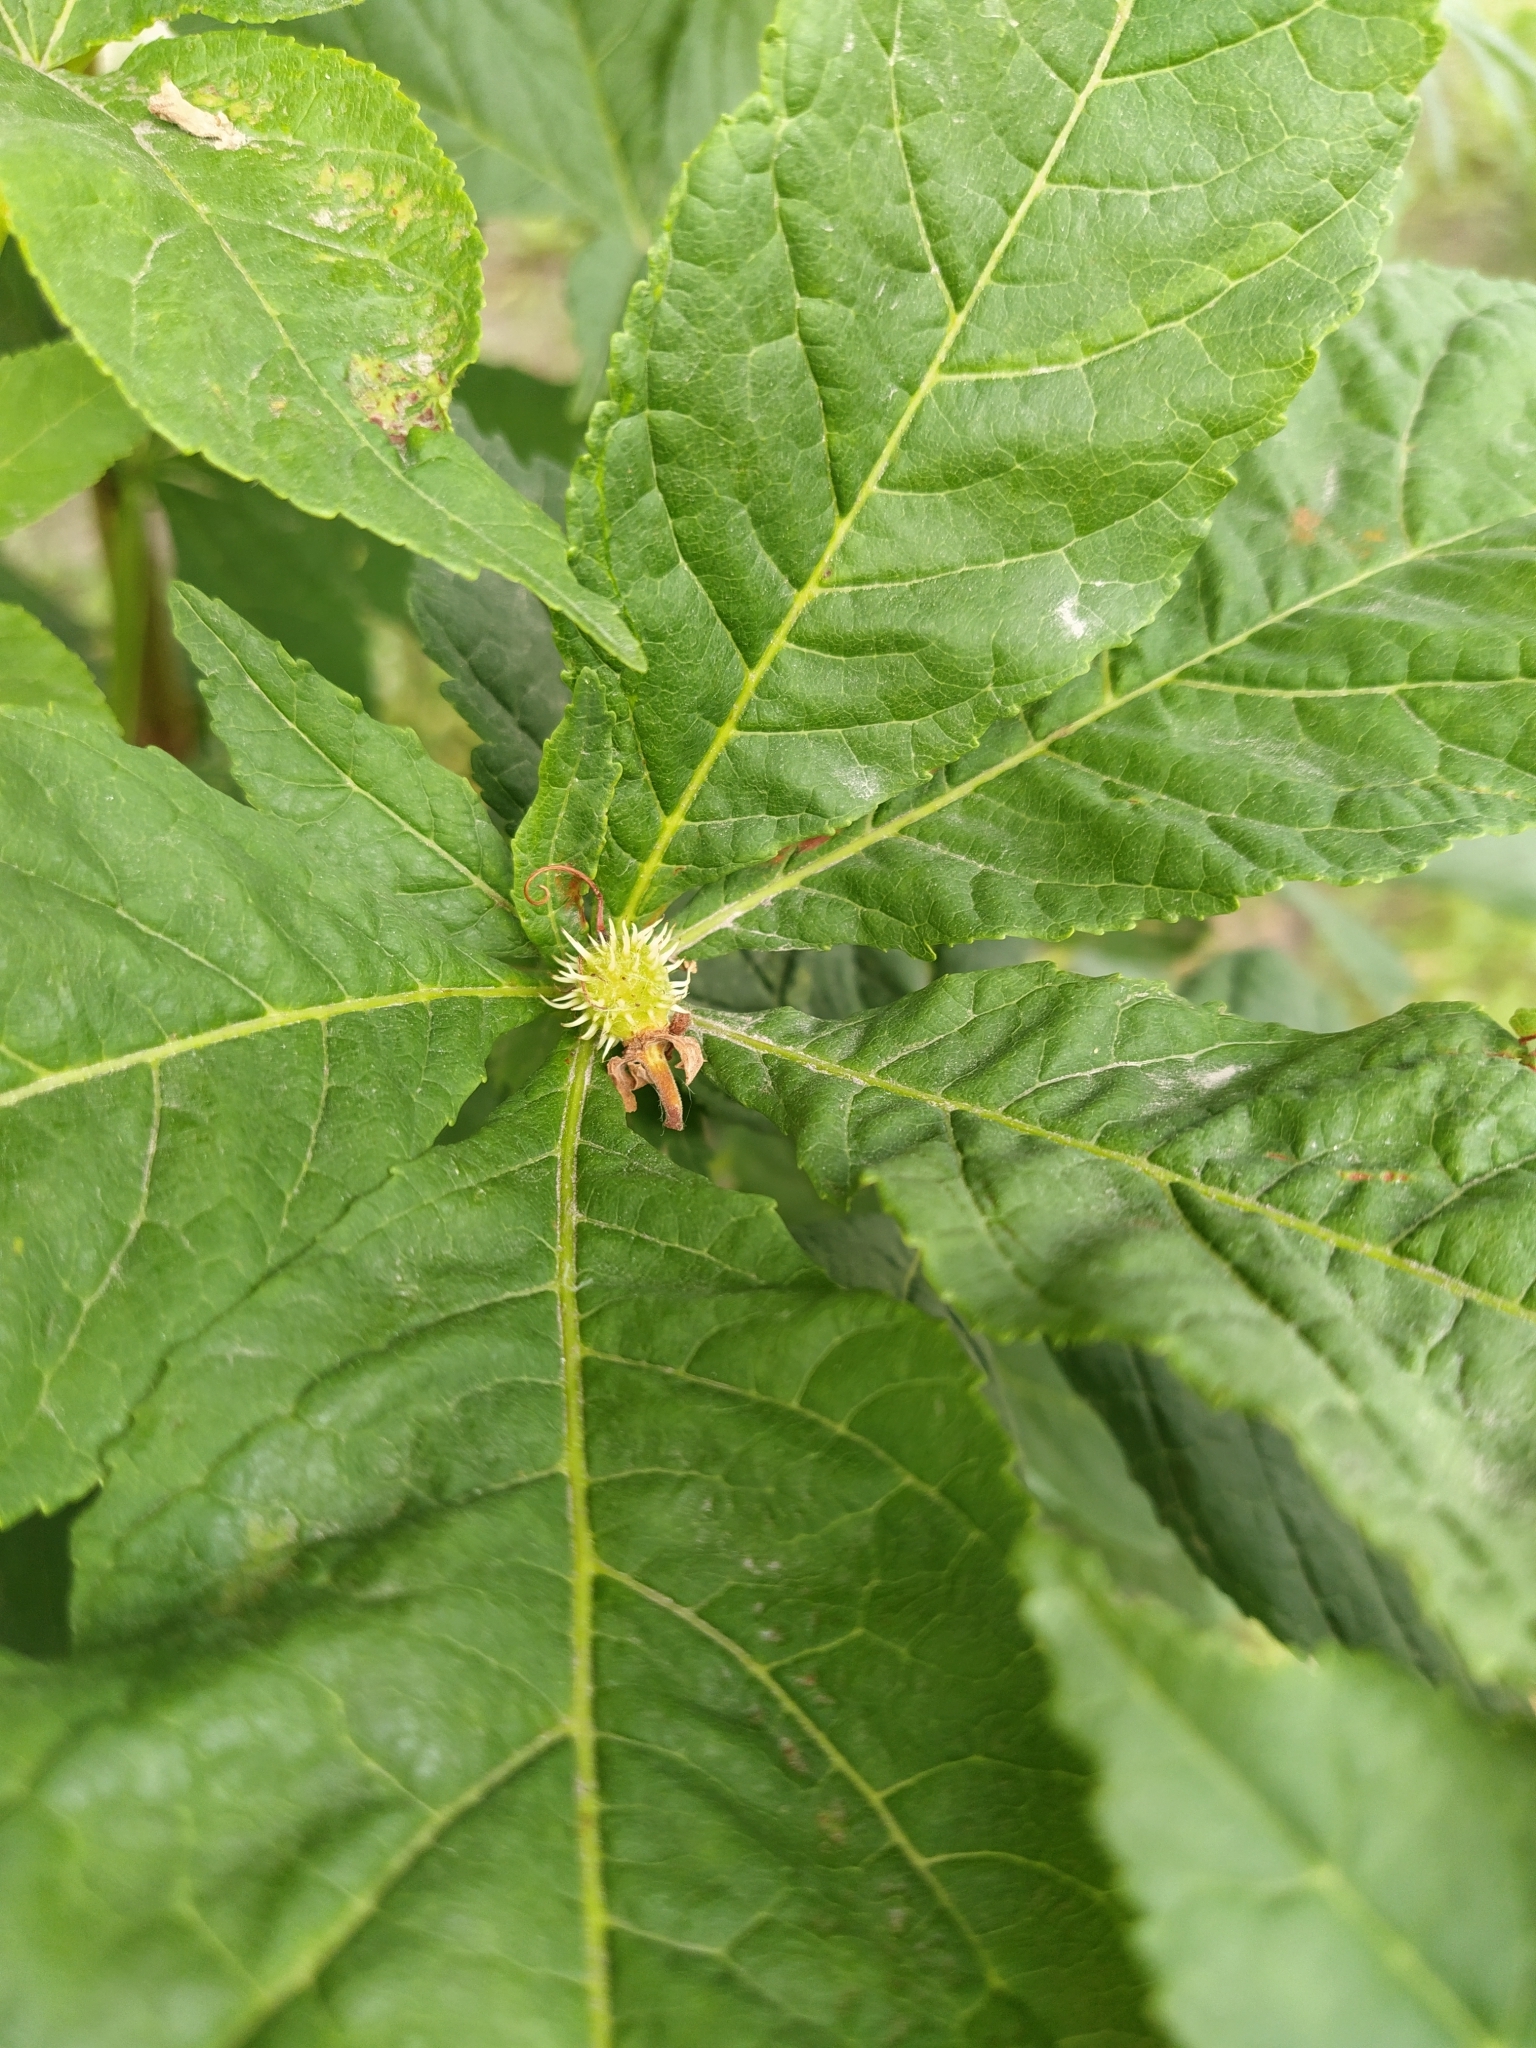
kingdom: Plantae
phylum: Tracheophyta
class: Magnoliopsida
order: Sapindales
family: Sapindaceae
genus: Aesculus
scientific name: Aesculus hippocastanum
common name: Horse-chestnut
